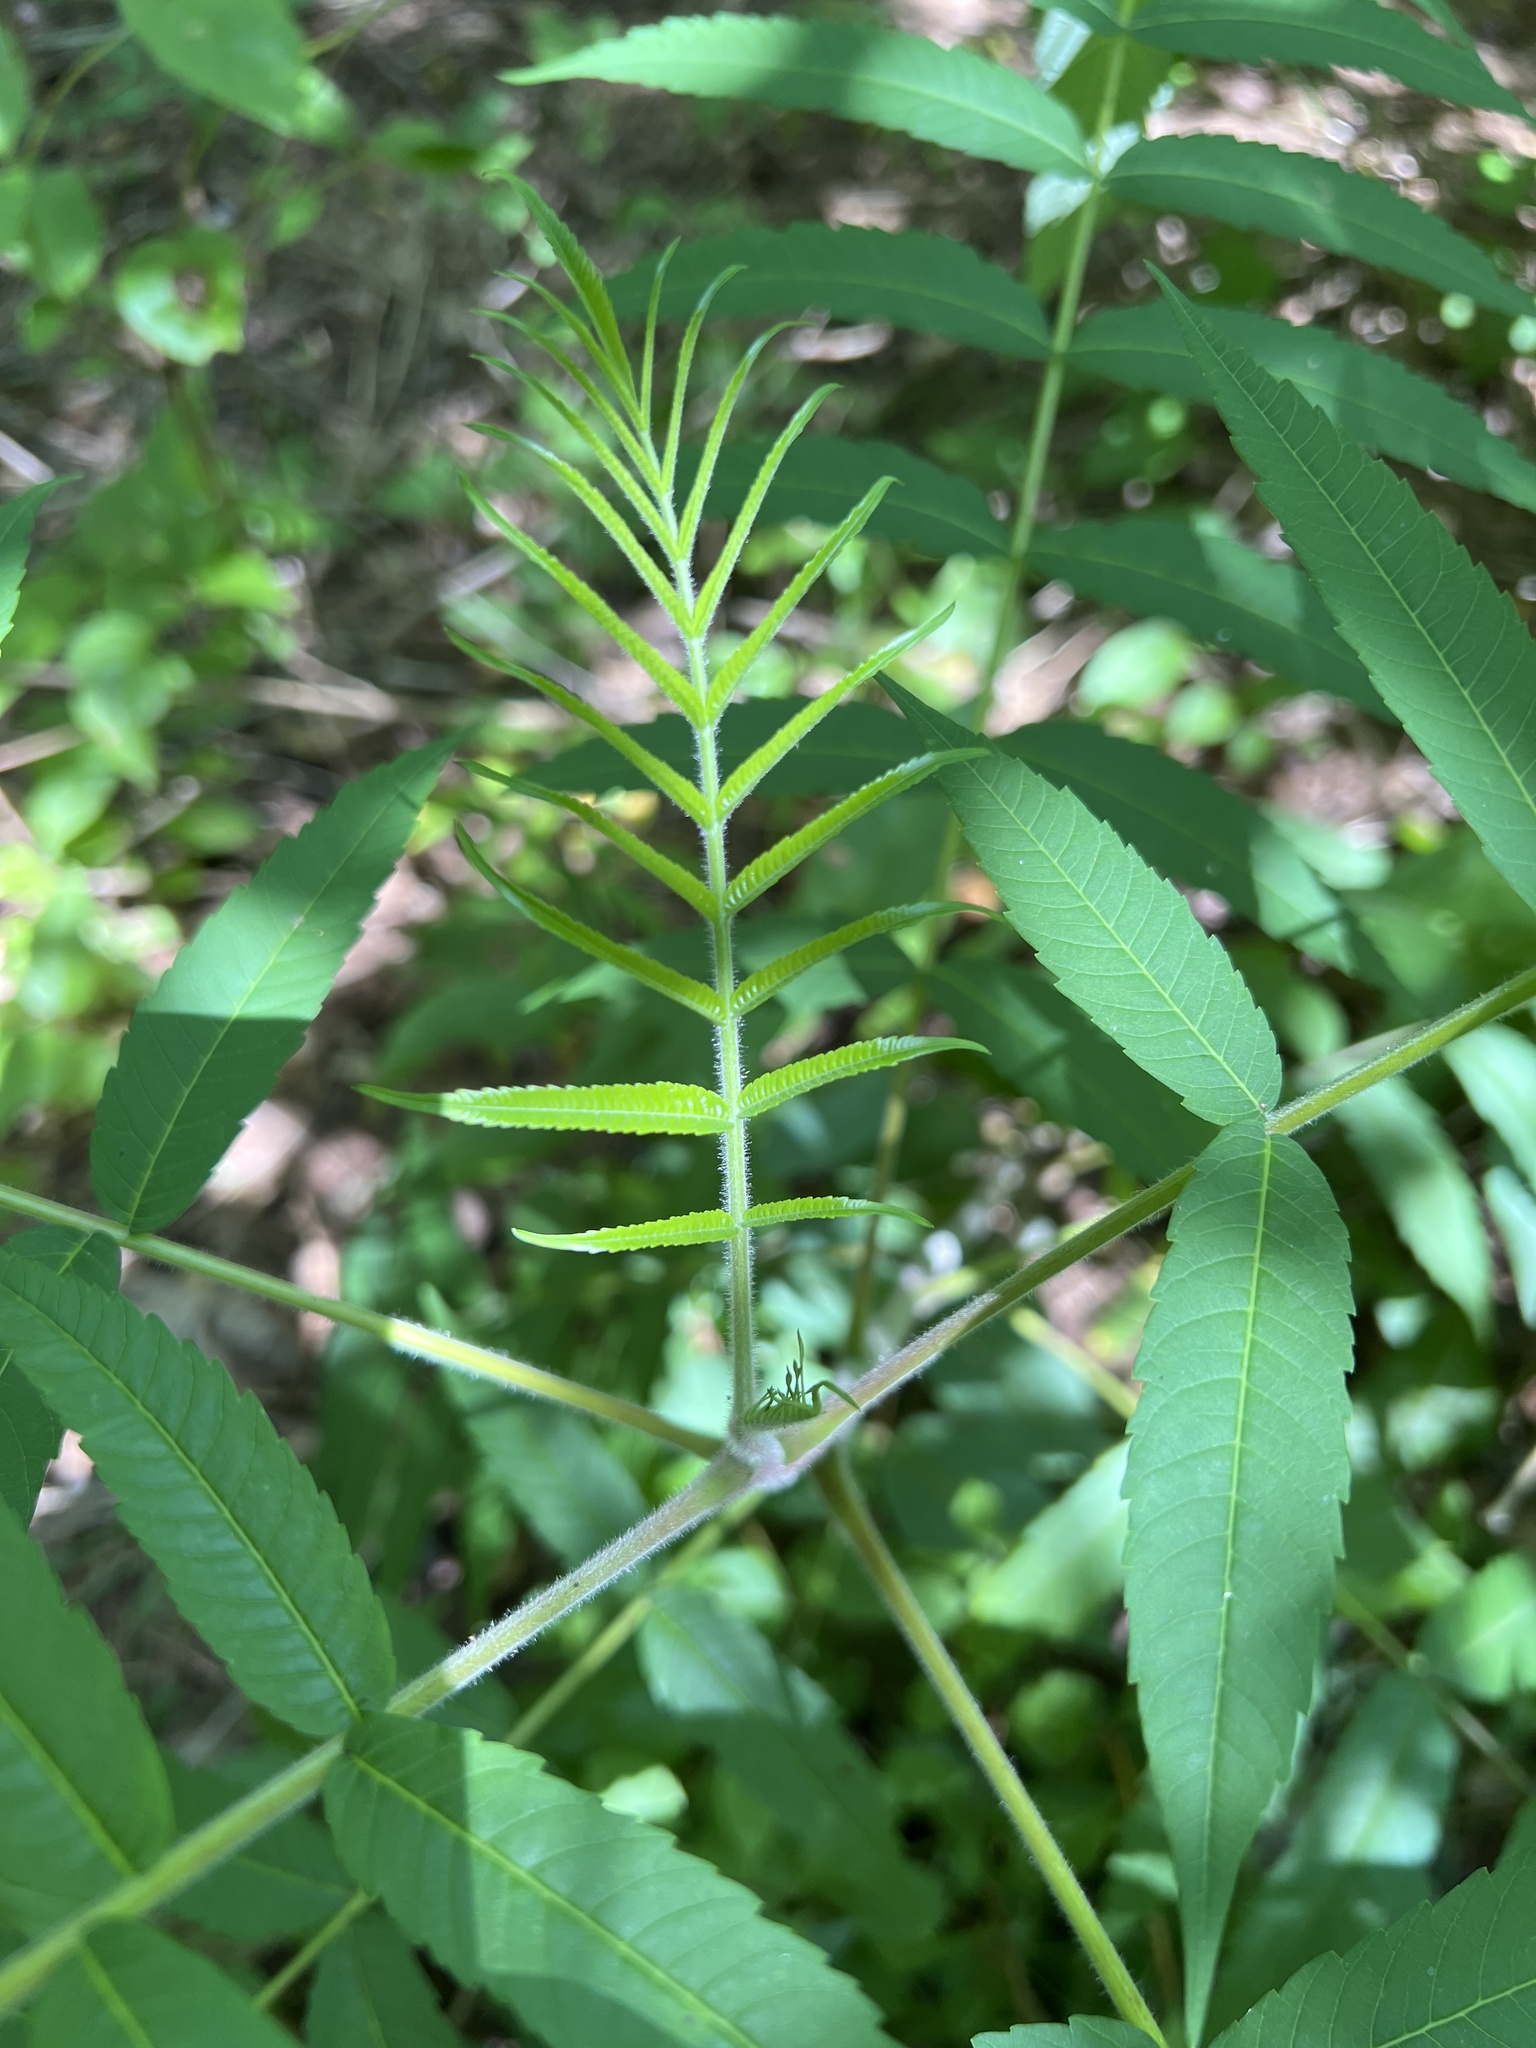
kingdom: Plantae
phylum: Tracheophyta
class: Magnoliopsida
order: Sapindales
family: Anacardiaceae
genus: Rhus
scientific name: Rhus typhina
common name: Staghorn sumac
